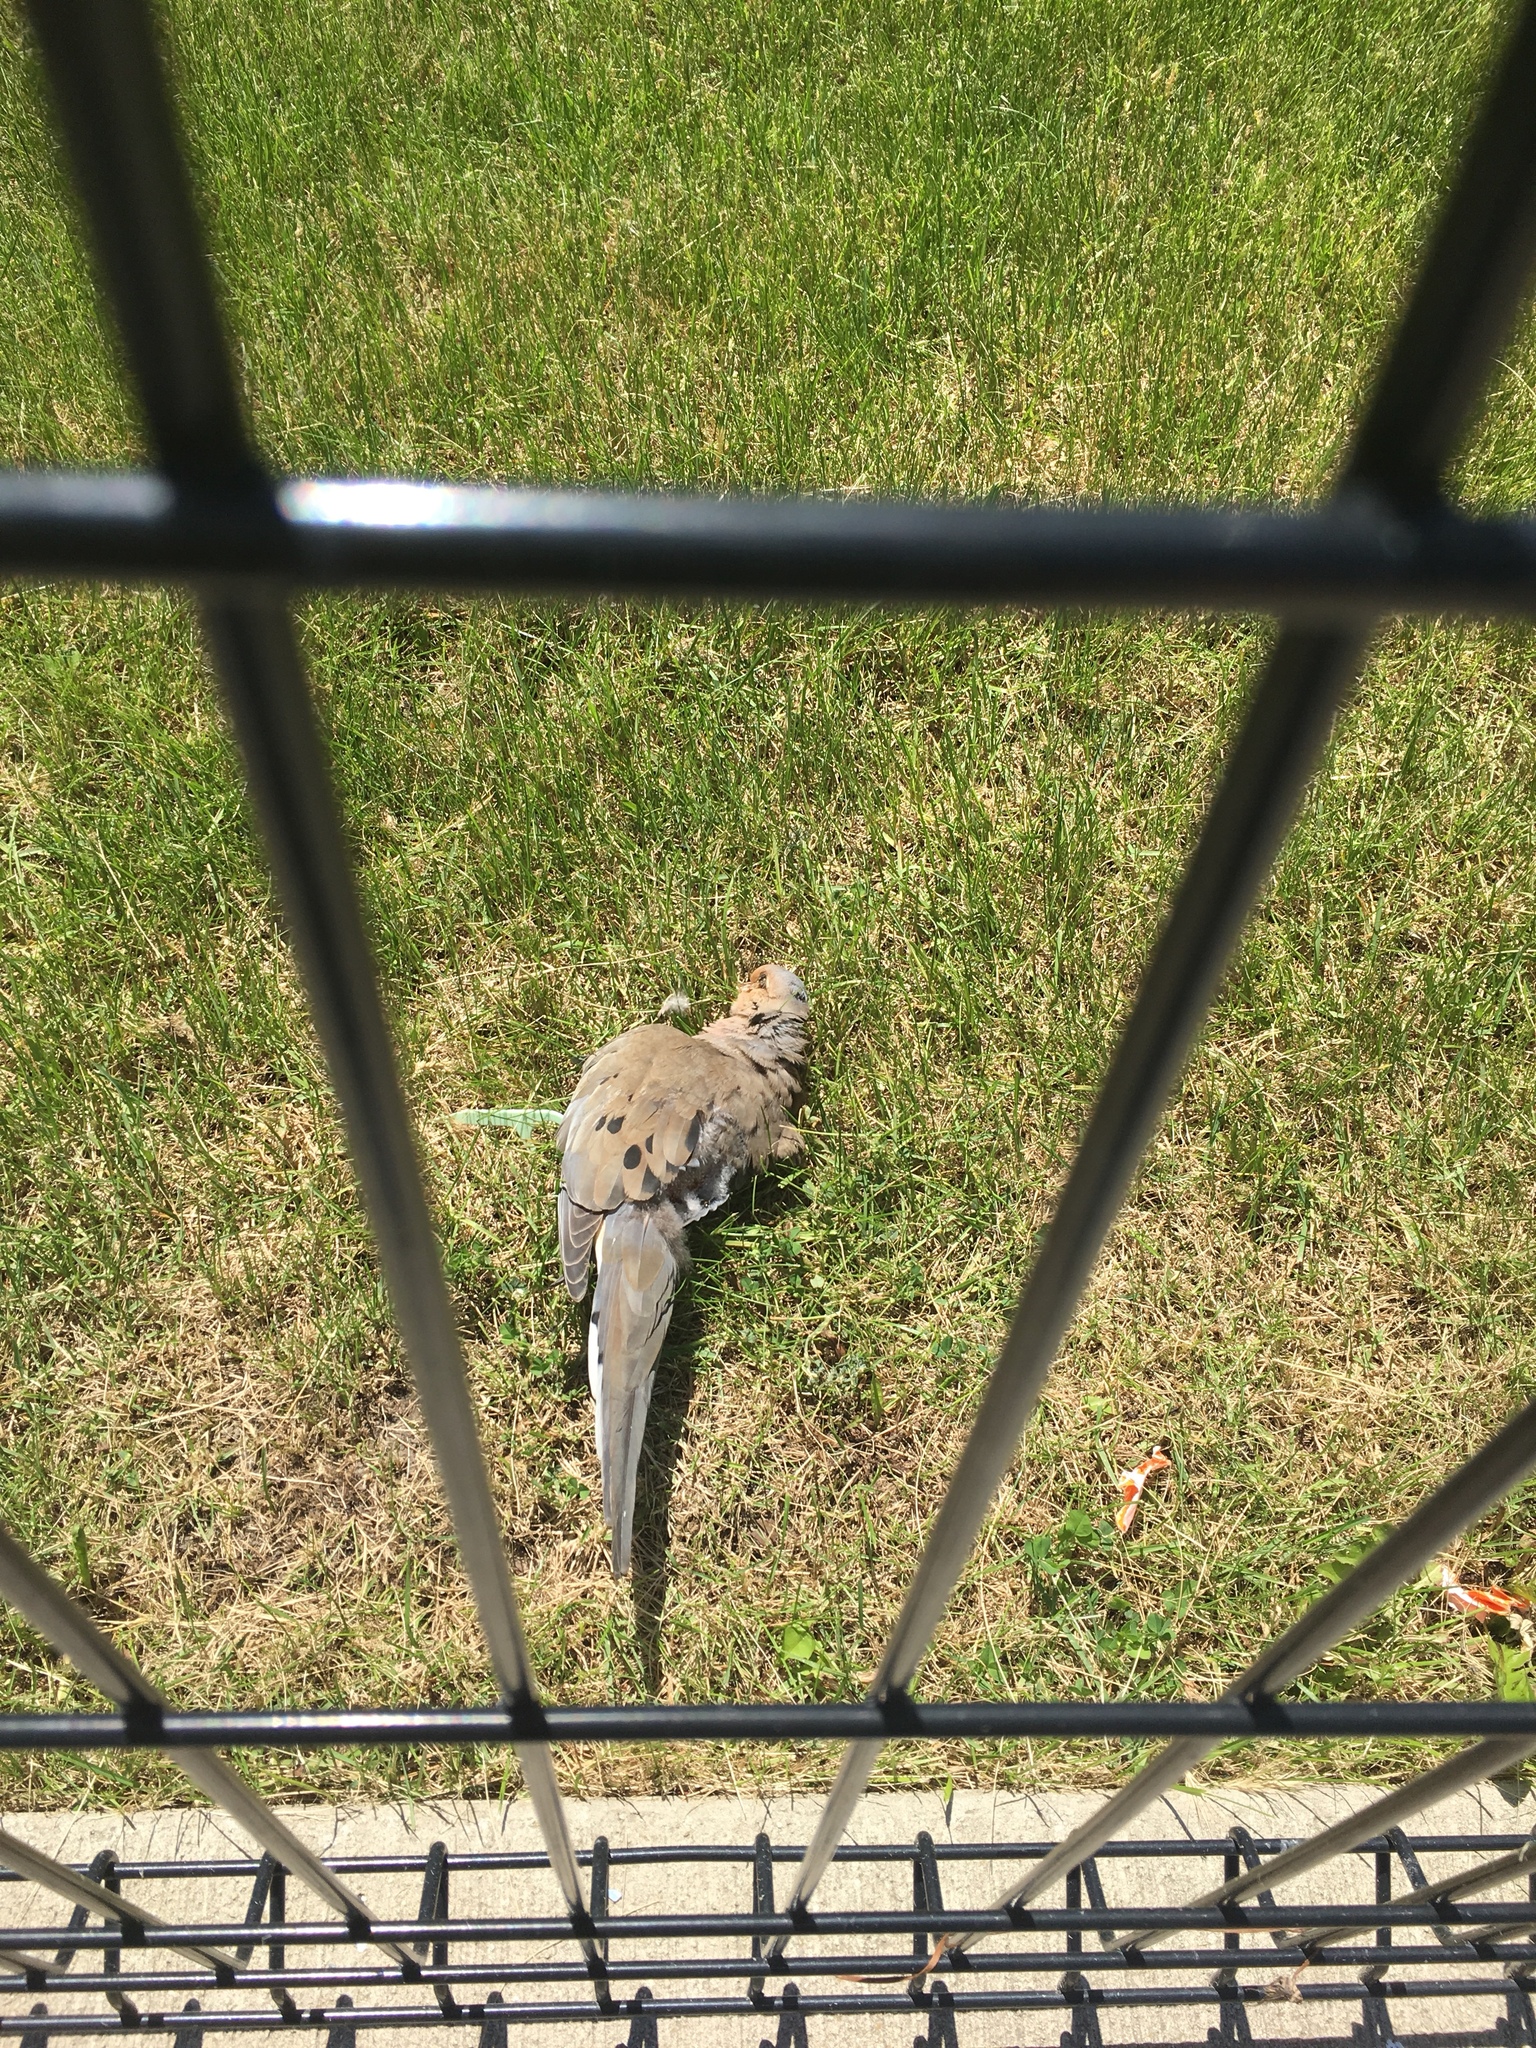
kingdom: Animalia
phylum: Chordata
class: Aves
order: Columbiformes
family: Columbidae
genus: Zenaida
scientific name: Zenaida macroura
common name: Mourning dove
